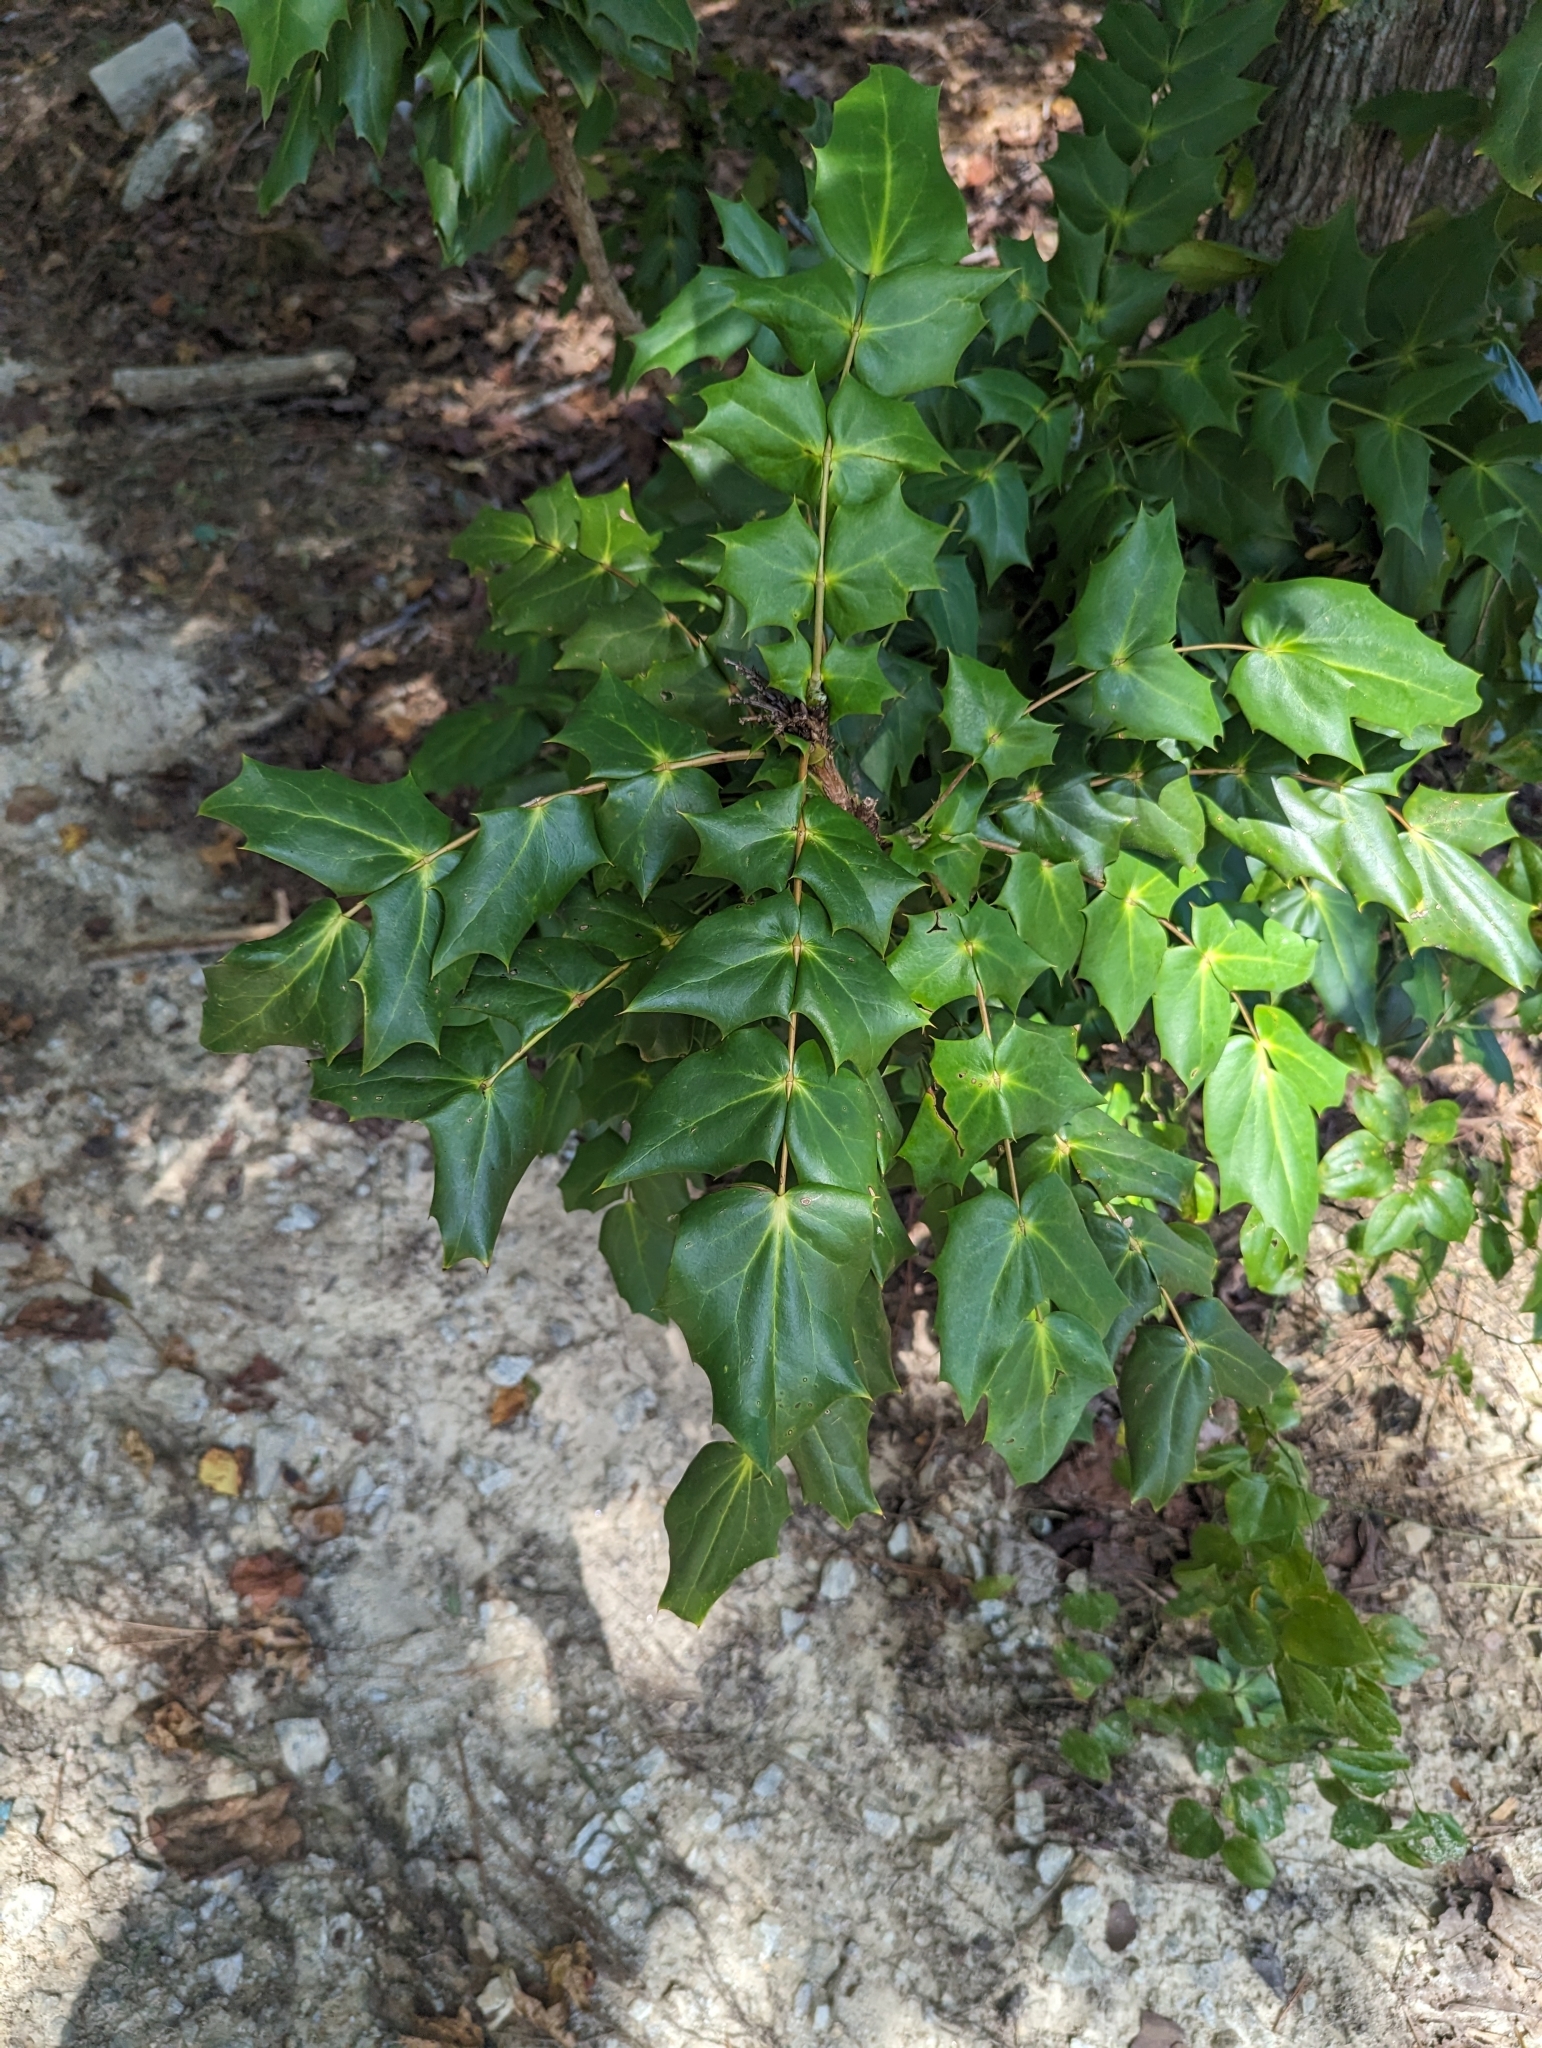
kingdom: Plantae
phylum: Tracheophyta
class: Magnoliopsida
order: Ranunculales
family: Berberidaceae
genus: Mahonia
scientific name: Mahonia bealei
